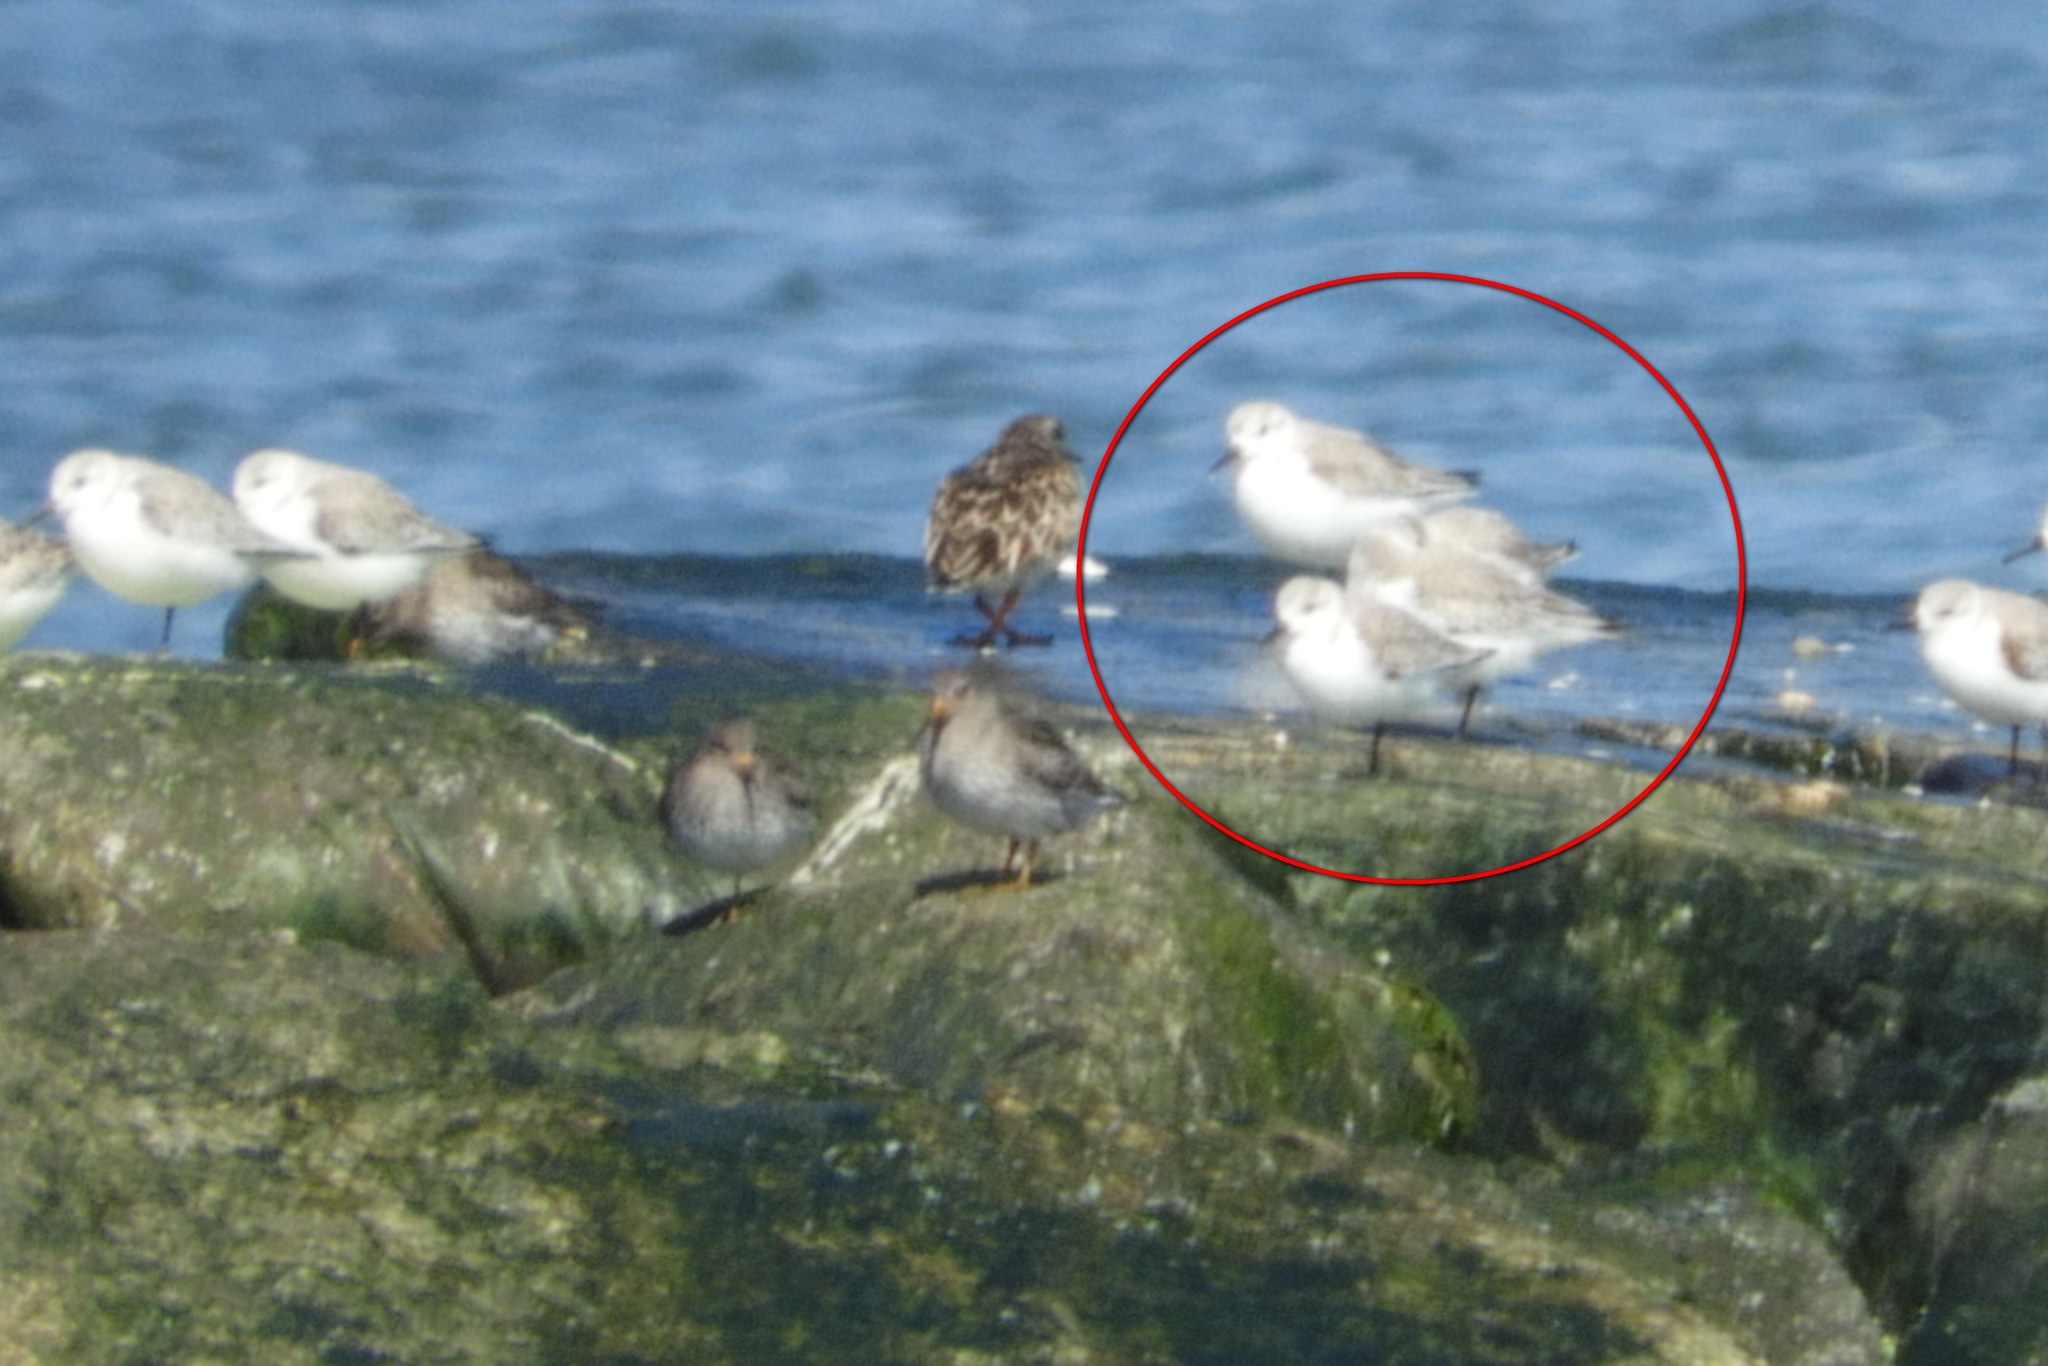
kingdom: Animalia
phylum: Chordata
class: Aves
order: Charadriiformes
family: Scolopacidae
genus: Calidris
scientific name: Calidris alba
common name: Sanderling
